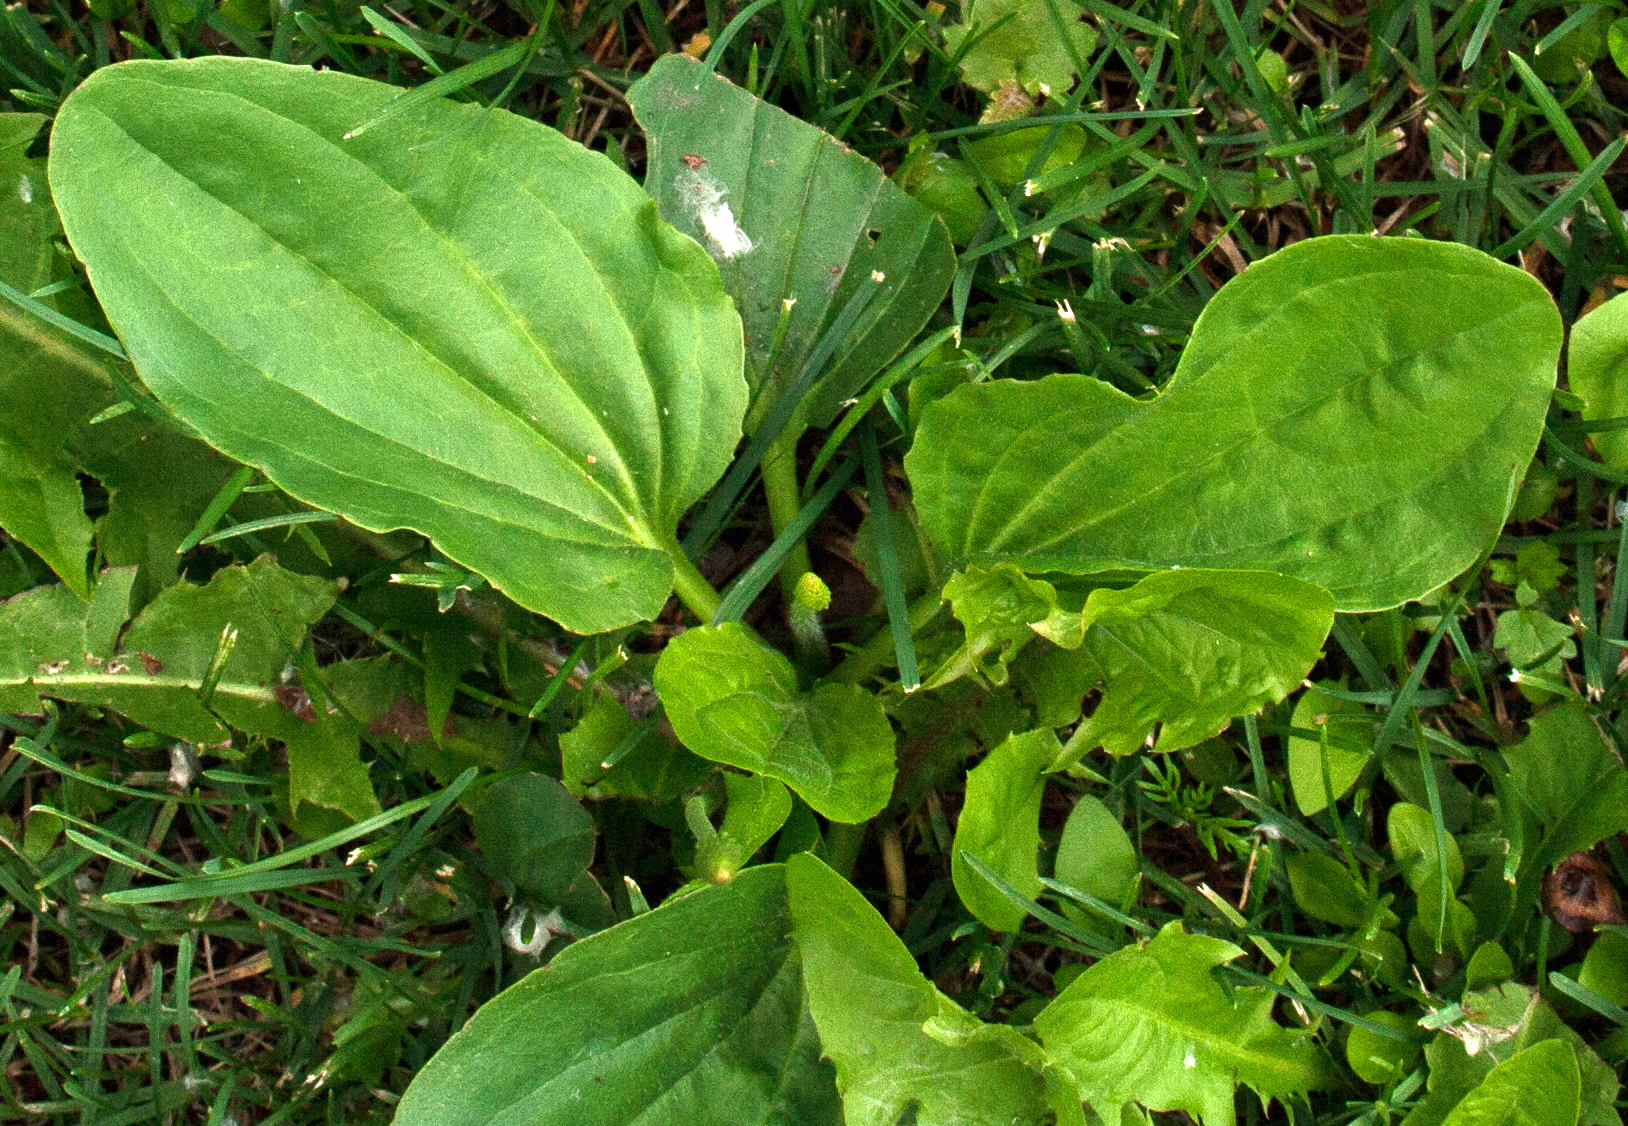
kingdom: Plantae
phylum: Tracheophyta
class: Magnoliopsida
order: Lamiales
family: Plantaginaceae
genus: Plantago
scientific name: Plantago major
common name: Common plantain
